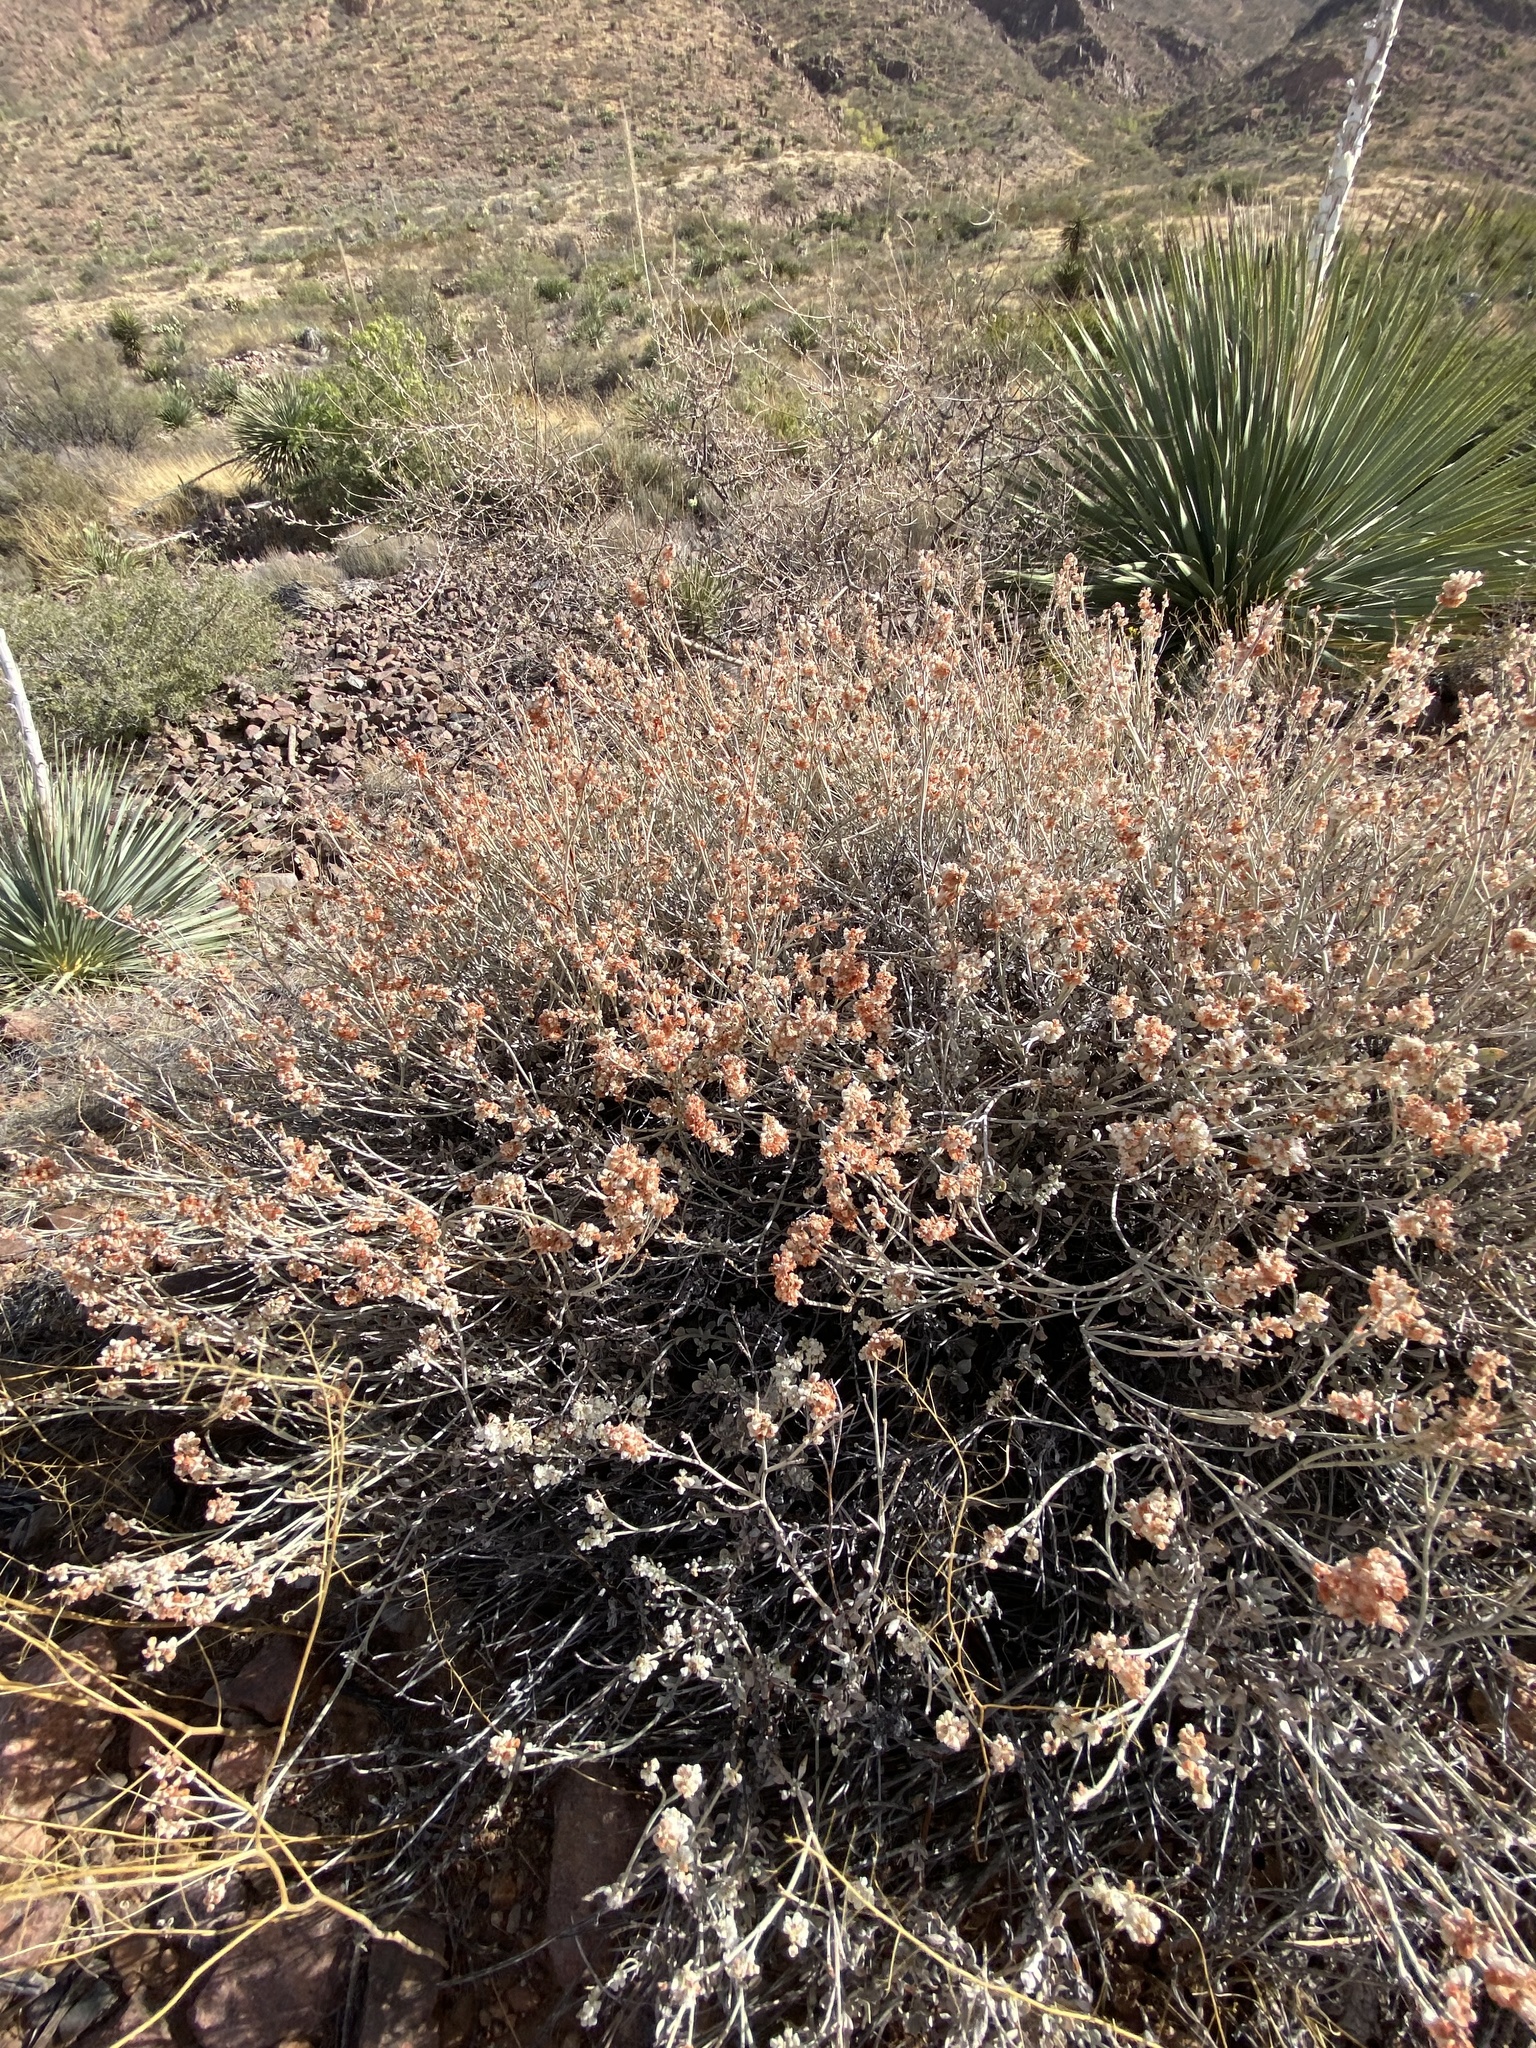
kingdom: Plantae
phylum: Tracheophyta
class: Magnoliopsida
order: Caryophyllales
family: Polygonaceae
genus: Eriogonum
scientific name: Eriogonum wrightii
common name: Bastard-sage
